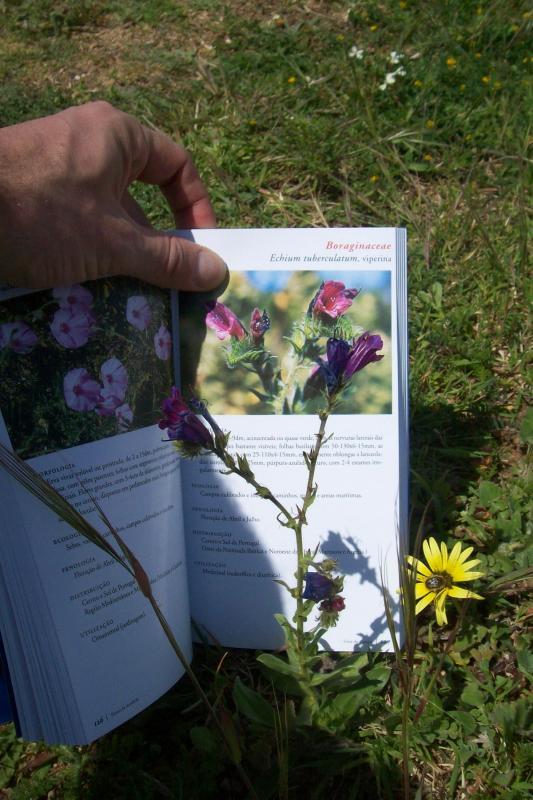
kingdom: Plantae
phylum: Tracheophyta
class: Magnoliopsida
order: Boraginales
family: Boraginaceae
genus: Echium
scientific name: Echium plantagineum
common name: Purple viper's-bugloss
